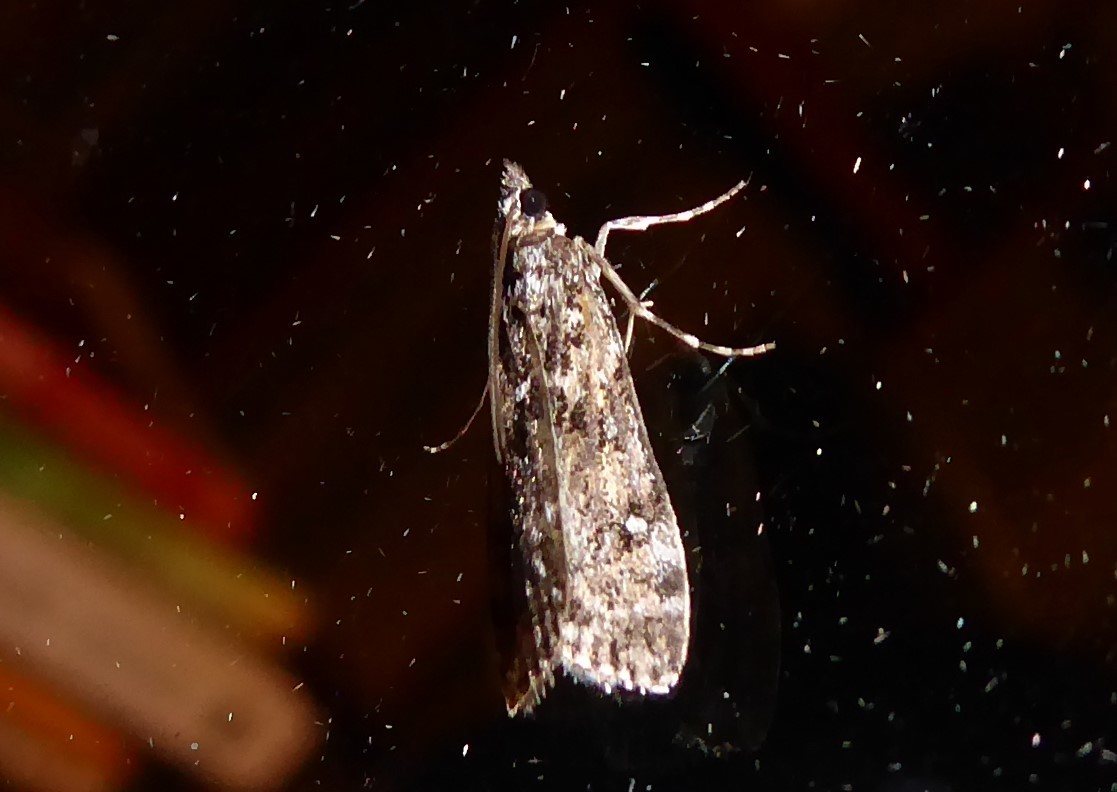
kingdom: Animalia
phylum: Arthropoda
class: Insecta
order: Lepidoptera
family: Crambidae
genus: Eudonia
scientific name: Eudonia philerga
